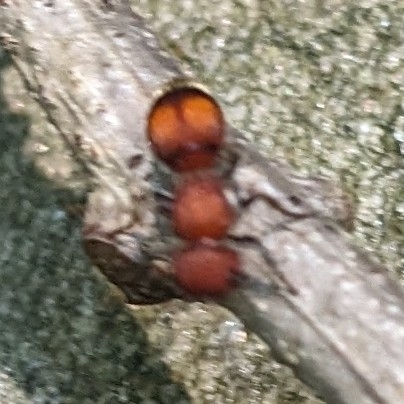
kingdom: Animalia
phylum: Arthropoda
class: Insecta
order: Hymenoptera
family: Mutillidae
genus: Pseudomethoca
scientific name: Pseudomethoca
